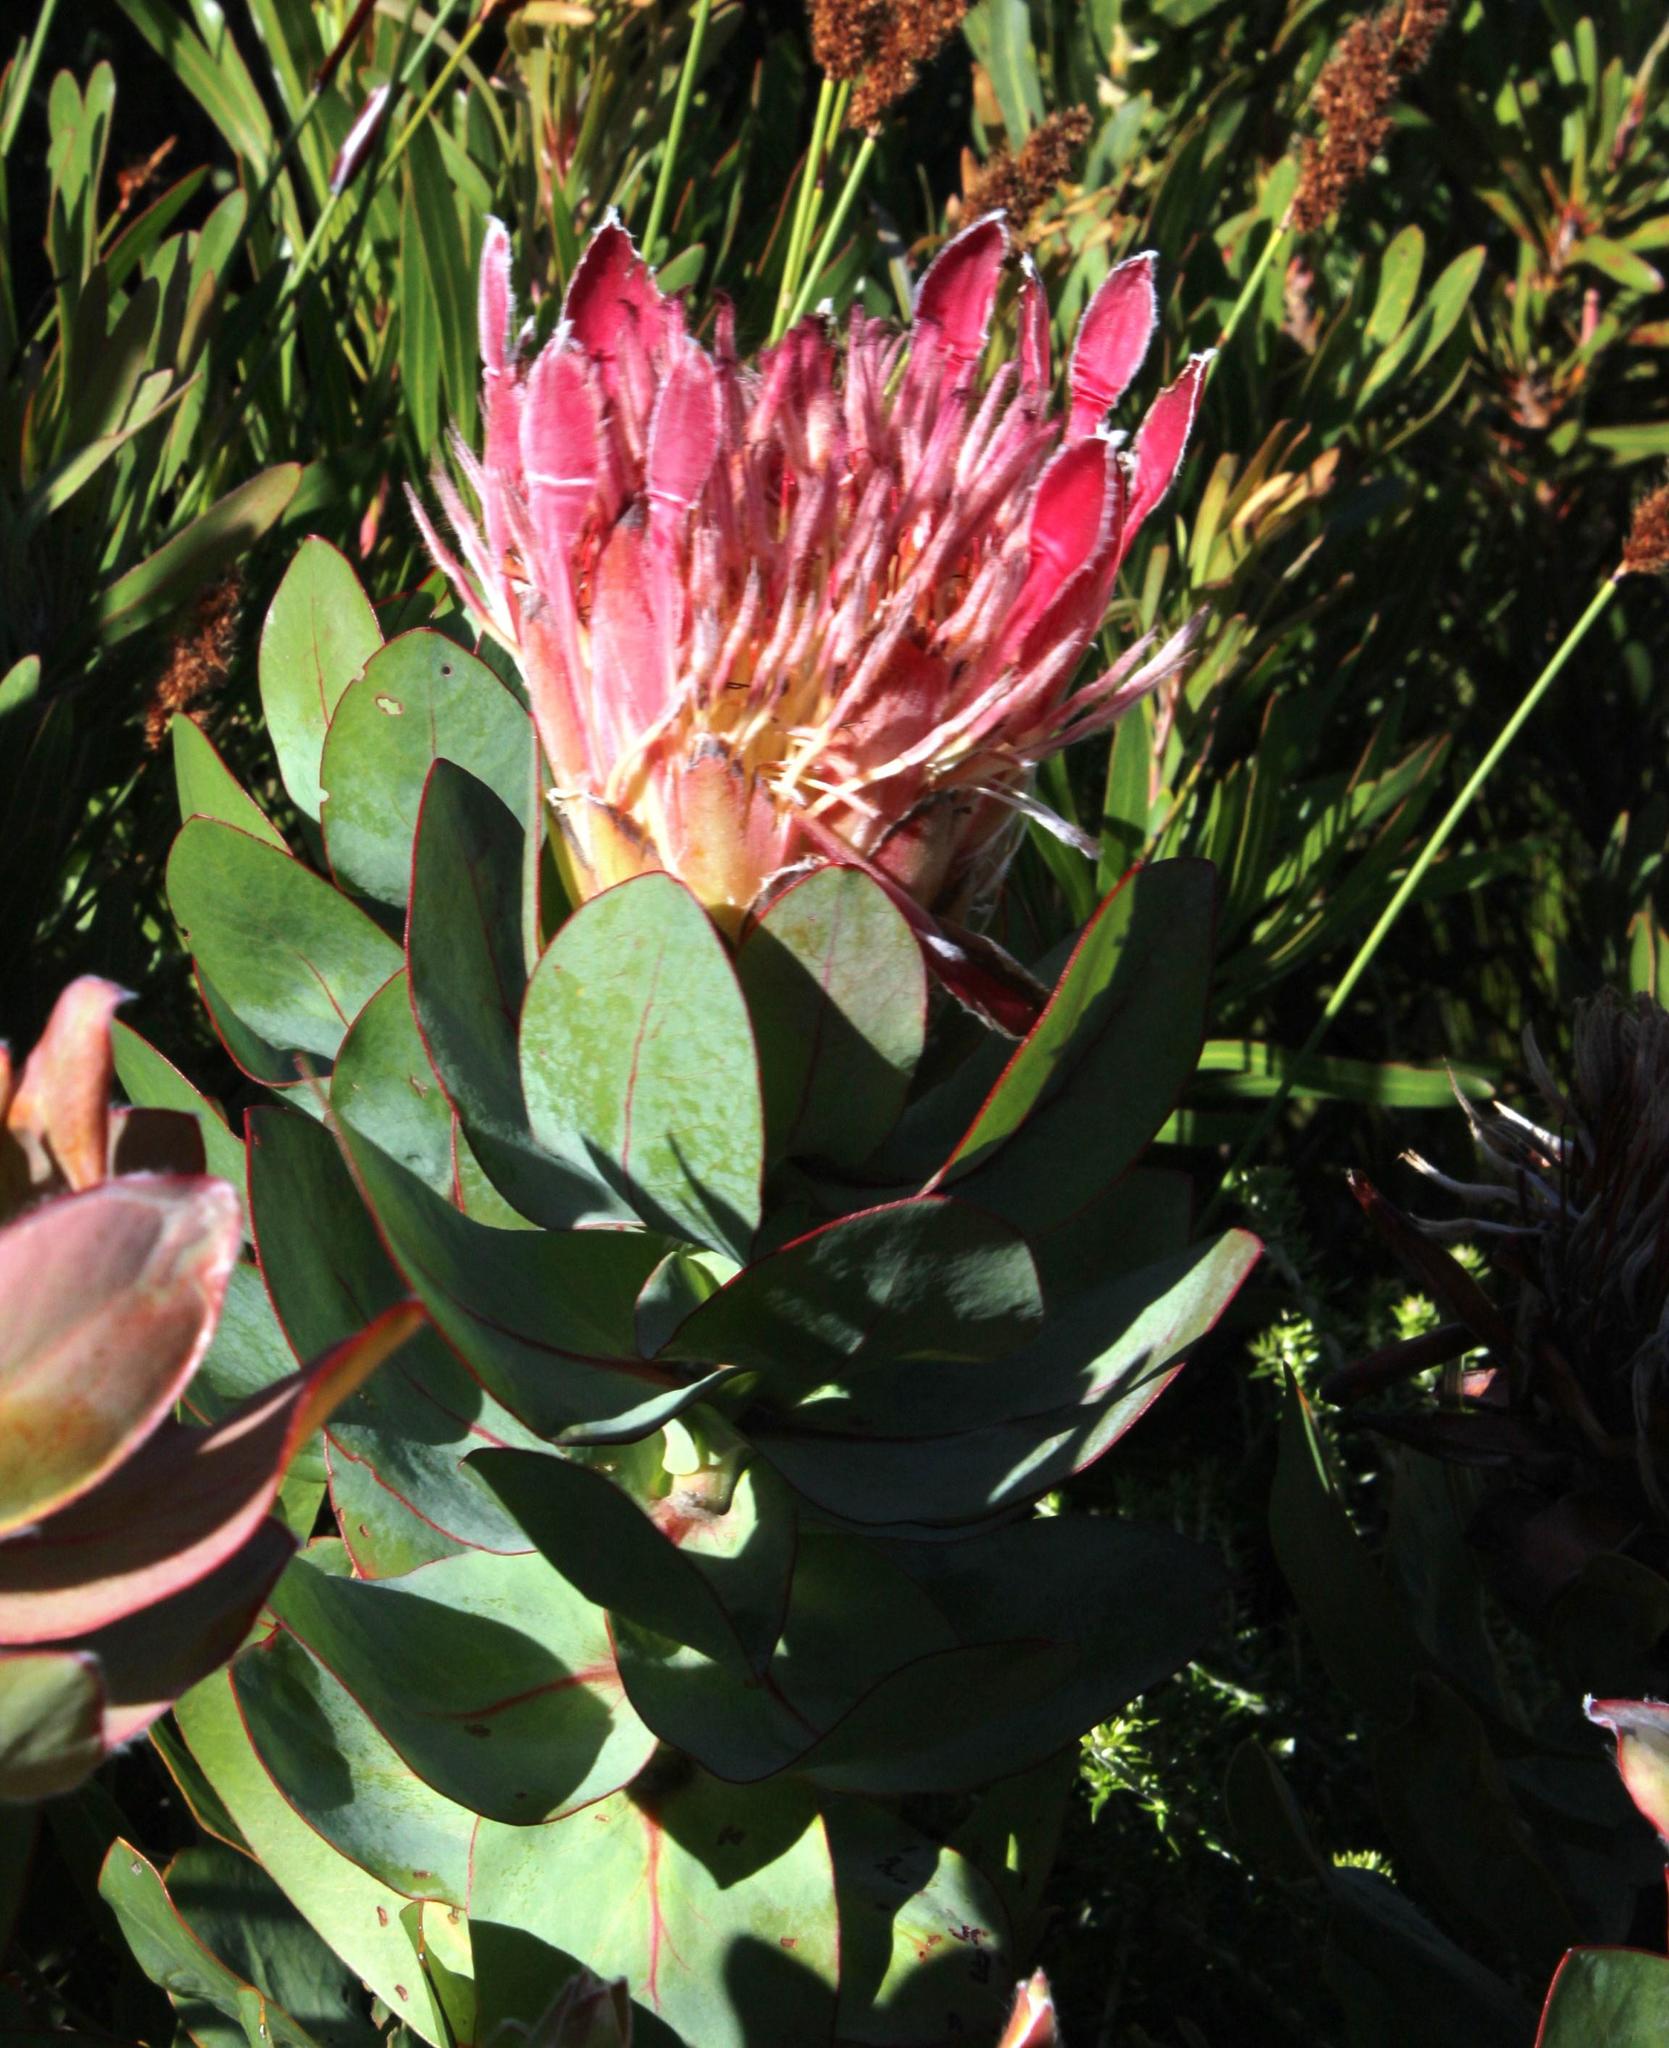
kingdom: Plantae
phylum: Tracheophyta
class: Magnoliopsida
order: Proteales
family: Proteaceae
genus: Protea
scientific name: Protea eximia
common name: Broad-leaved sugarbush
